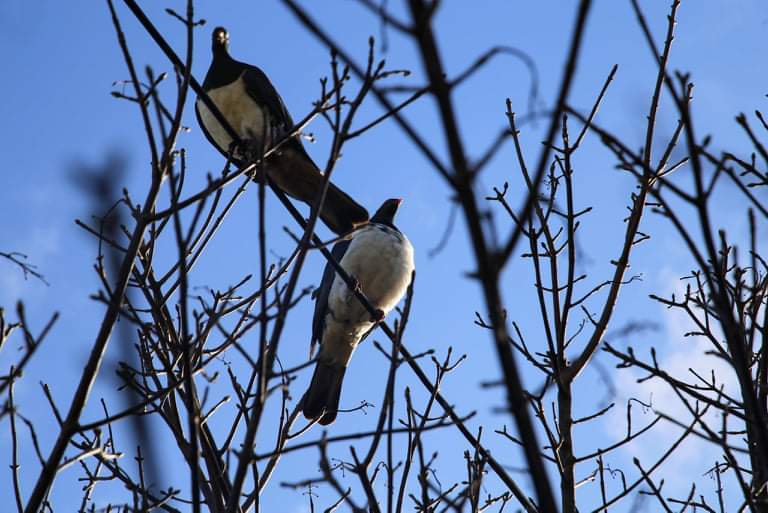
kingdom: Animalia
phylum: Chordata
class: Aves
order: Columbiformes
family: Columbidae
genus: Hemiphaga
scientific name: Hemiphaga novaeseelandiae
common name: New zealand pigeon
